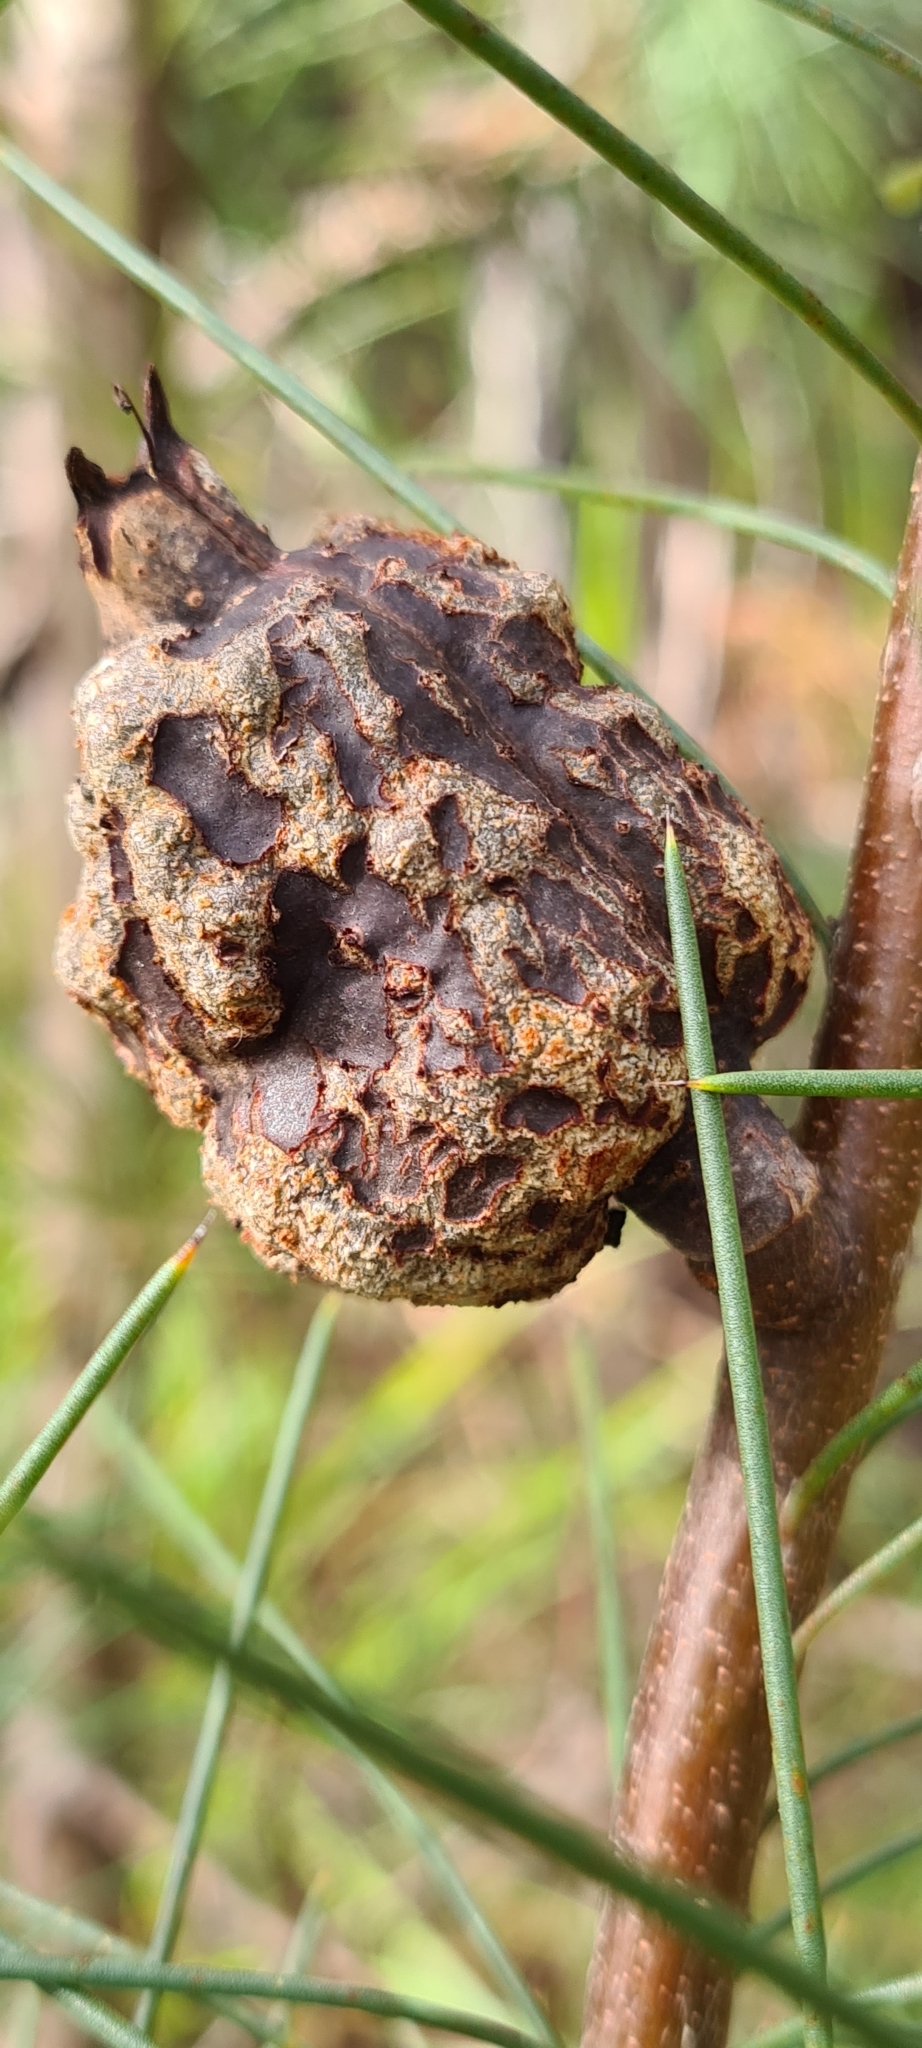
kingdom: Plantae
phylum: Tracheophyta
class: Magnoliopsida
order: Proteales
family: Proteaceae
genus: Hakea
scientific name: Hakea sericea
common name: Needle bush
